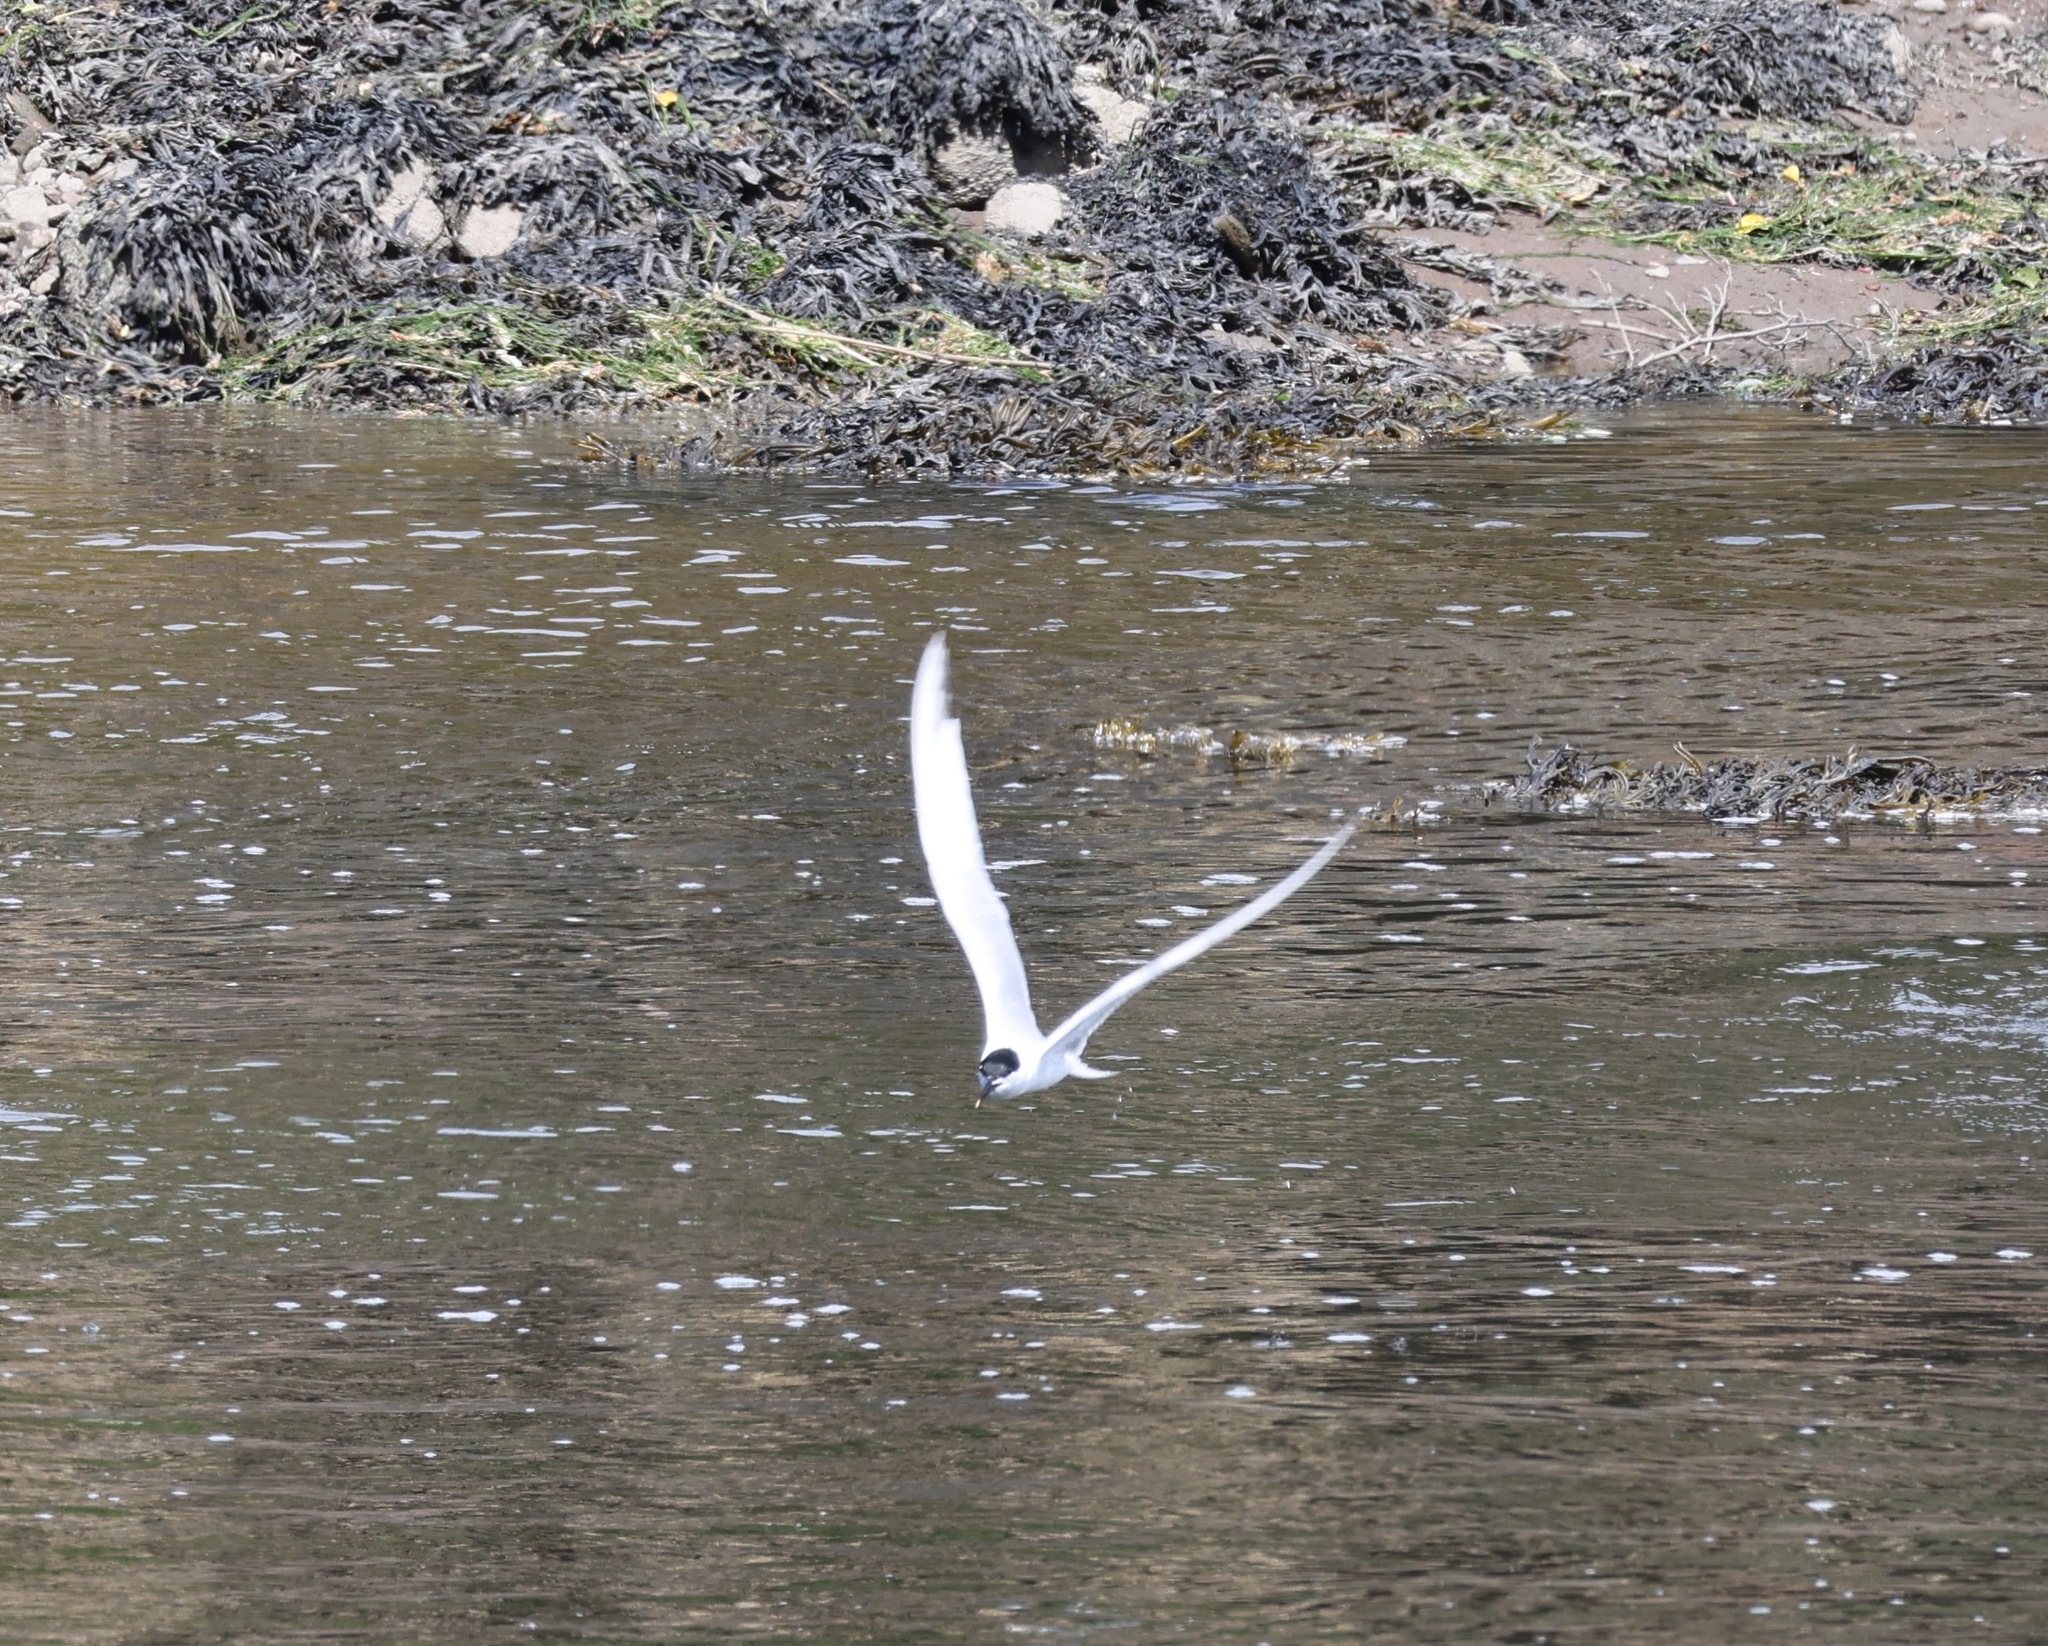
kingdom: Animalia
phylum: Chordata
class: Aves
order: Charadriiformes
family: Laridae
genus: Thalasseus
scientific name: Thalasseus sandvicensis
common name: Sandwich tern
